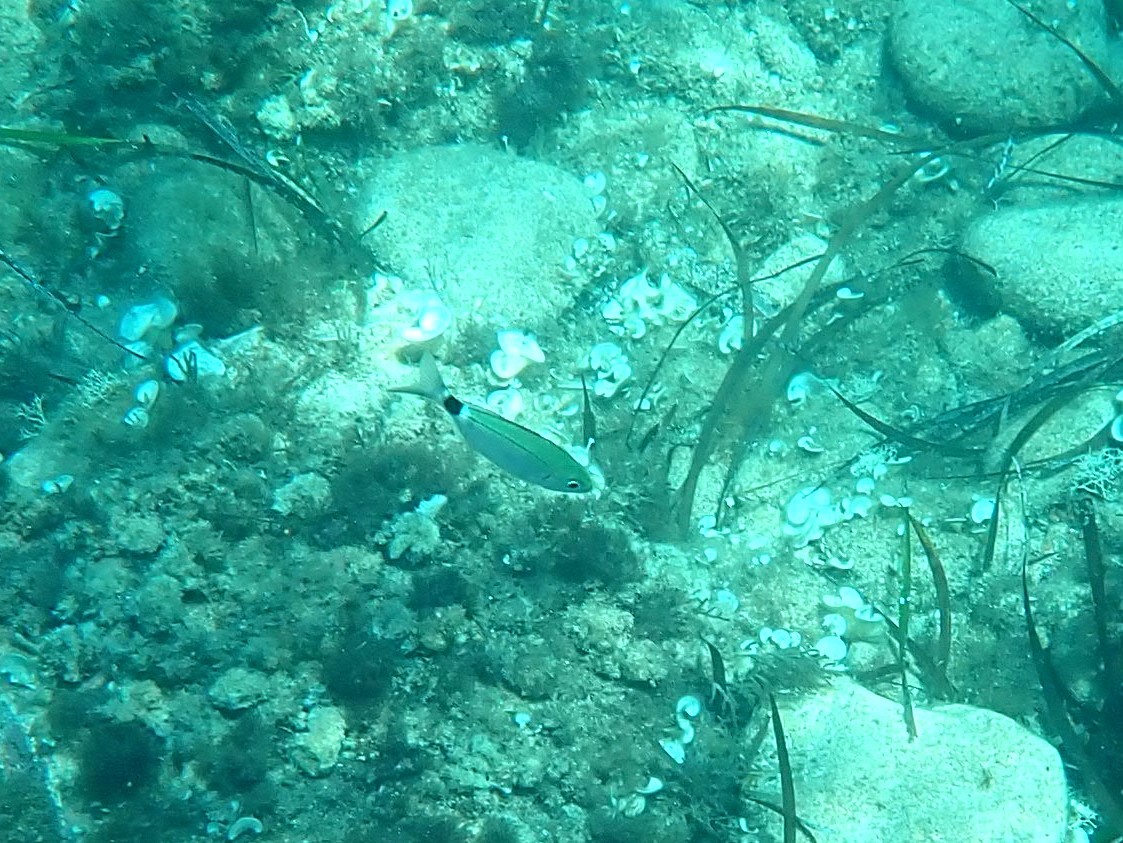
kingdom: Animalia
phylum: Chordata
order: Perciformes
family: Sparidae
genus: Oblada
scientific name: Oblada melanura
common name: Saddled seabream
